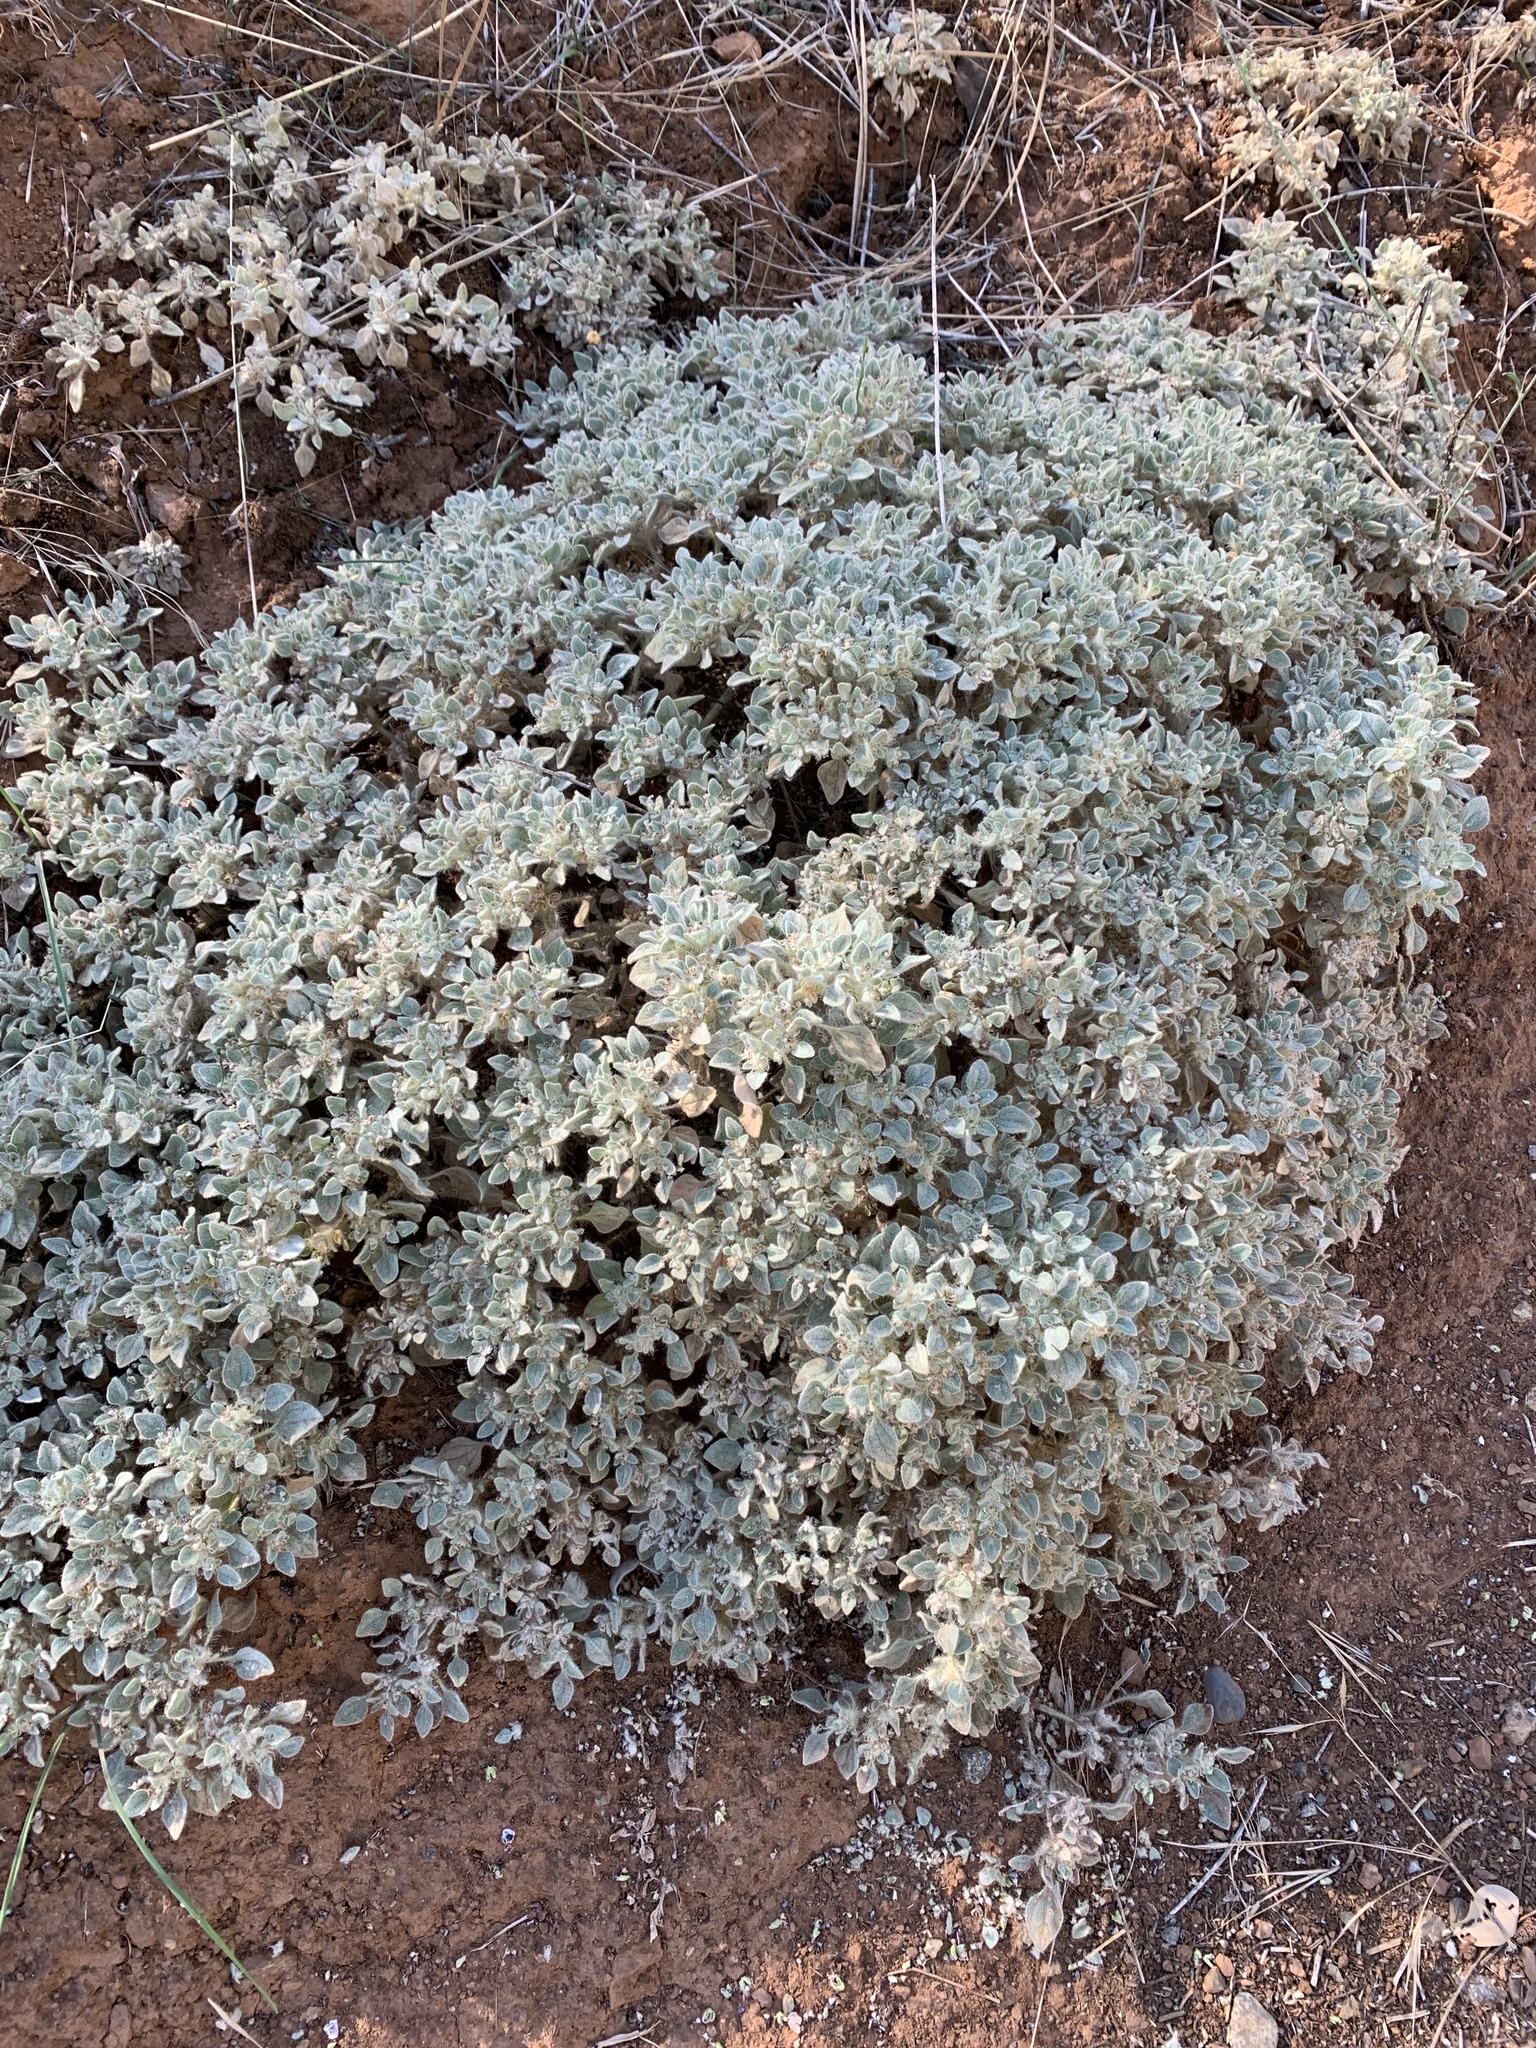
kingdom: Plantae
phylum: Tracheophyta
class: Magnoliopsida
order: Malpighiales
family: Euphorbiaceae
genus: Croton
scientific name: Croton setiger
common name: Dove weed
